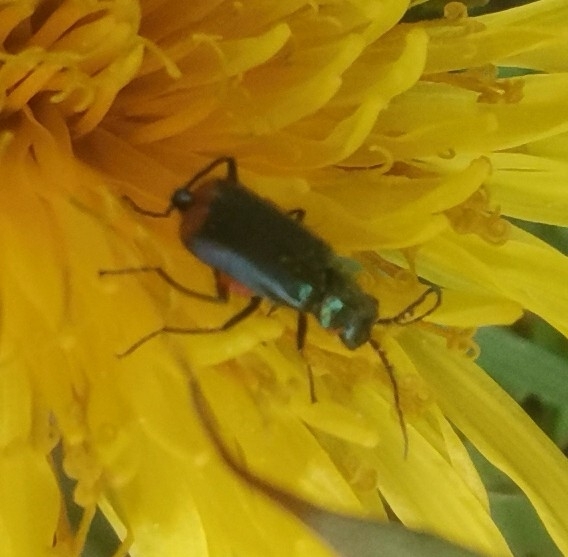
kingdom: Animalia
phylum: Arthropoda
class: Insecta
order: Coleoptera
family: Melyridae
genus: Malachius
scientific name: Malachius bipustulatus
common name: Malachite beetle
